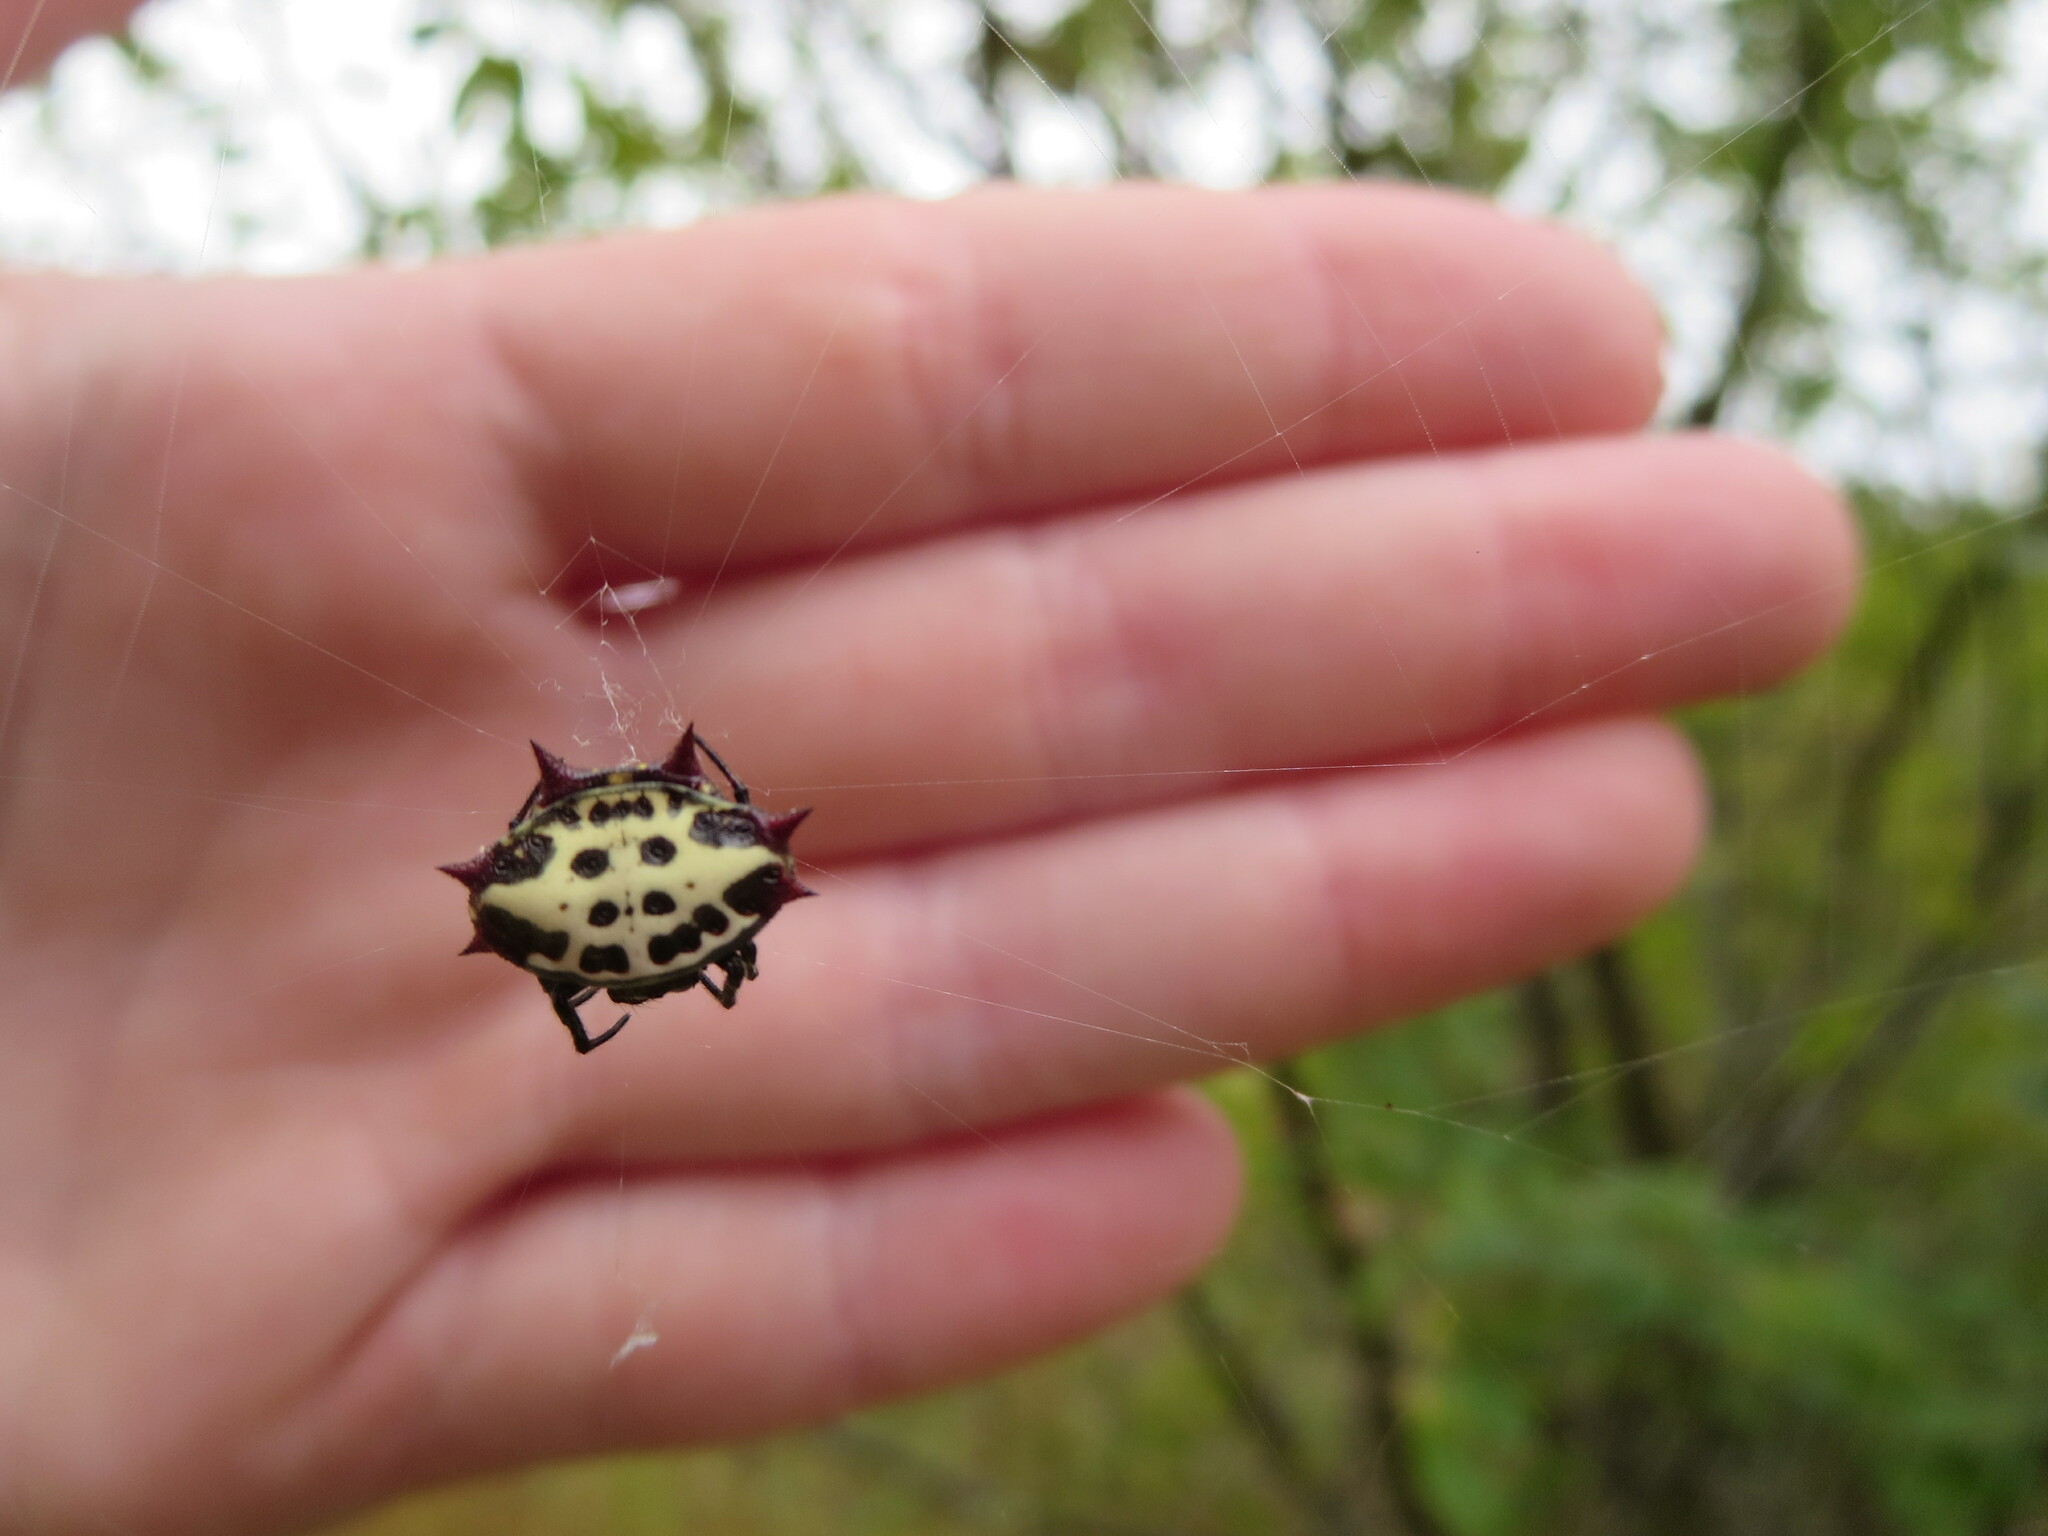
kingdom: Animalia
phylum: Arthropoda
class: Arachnida
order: Araneae
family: Araneidae
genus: Gasteracantha
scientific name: Gasteracantha cancriformis
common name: Orb weavers
